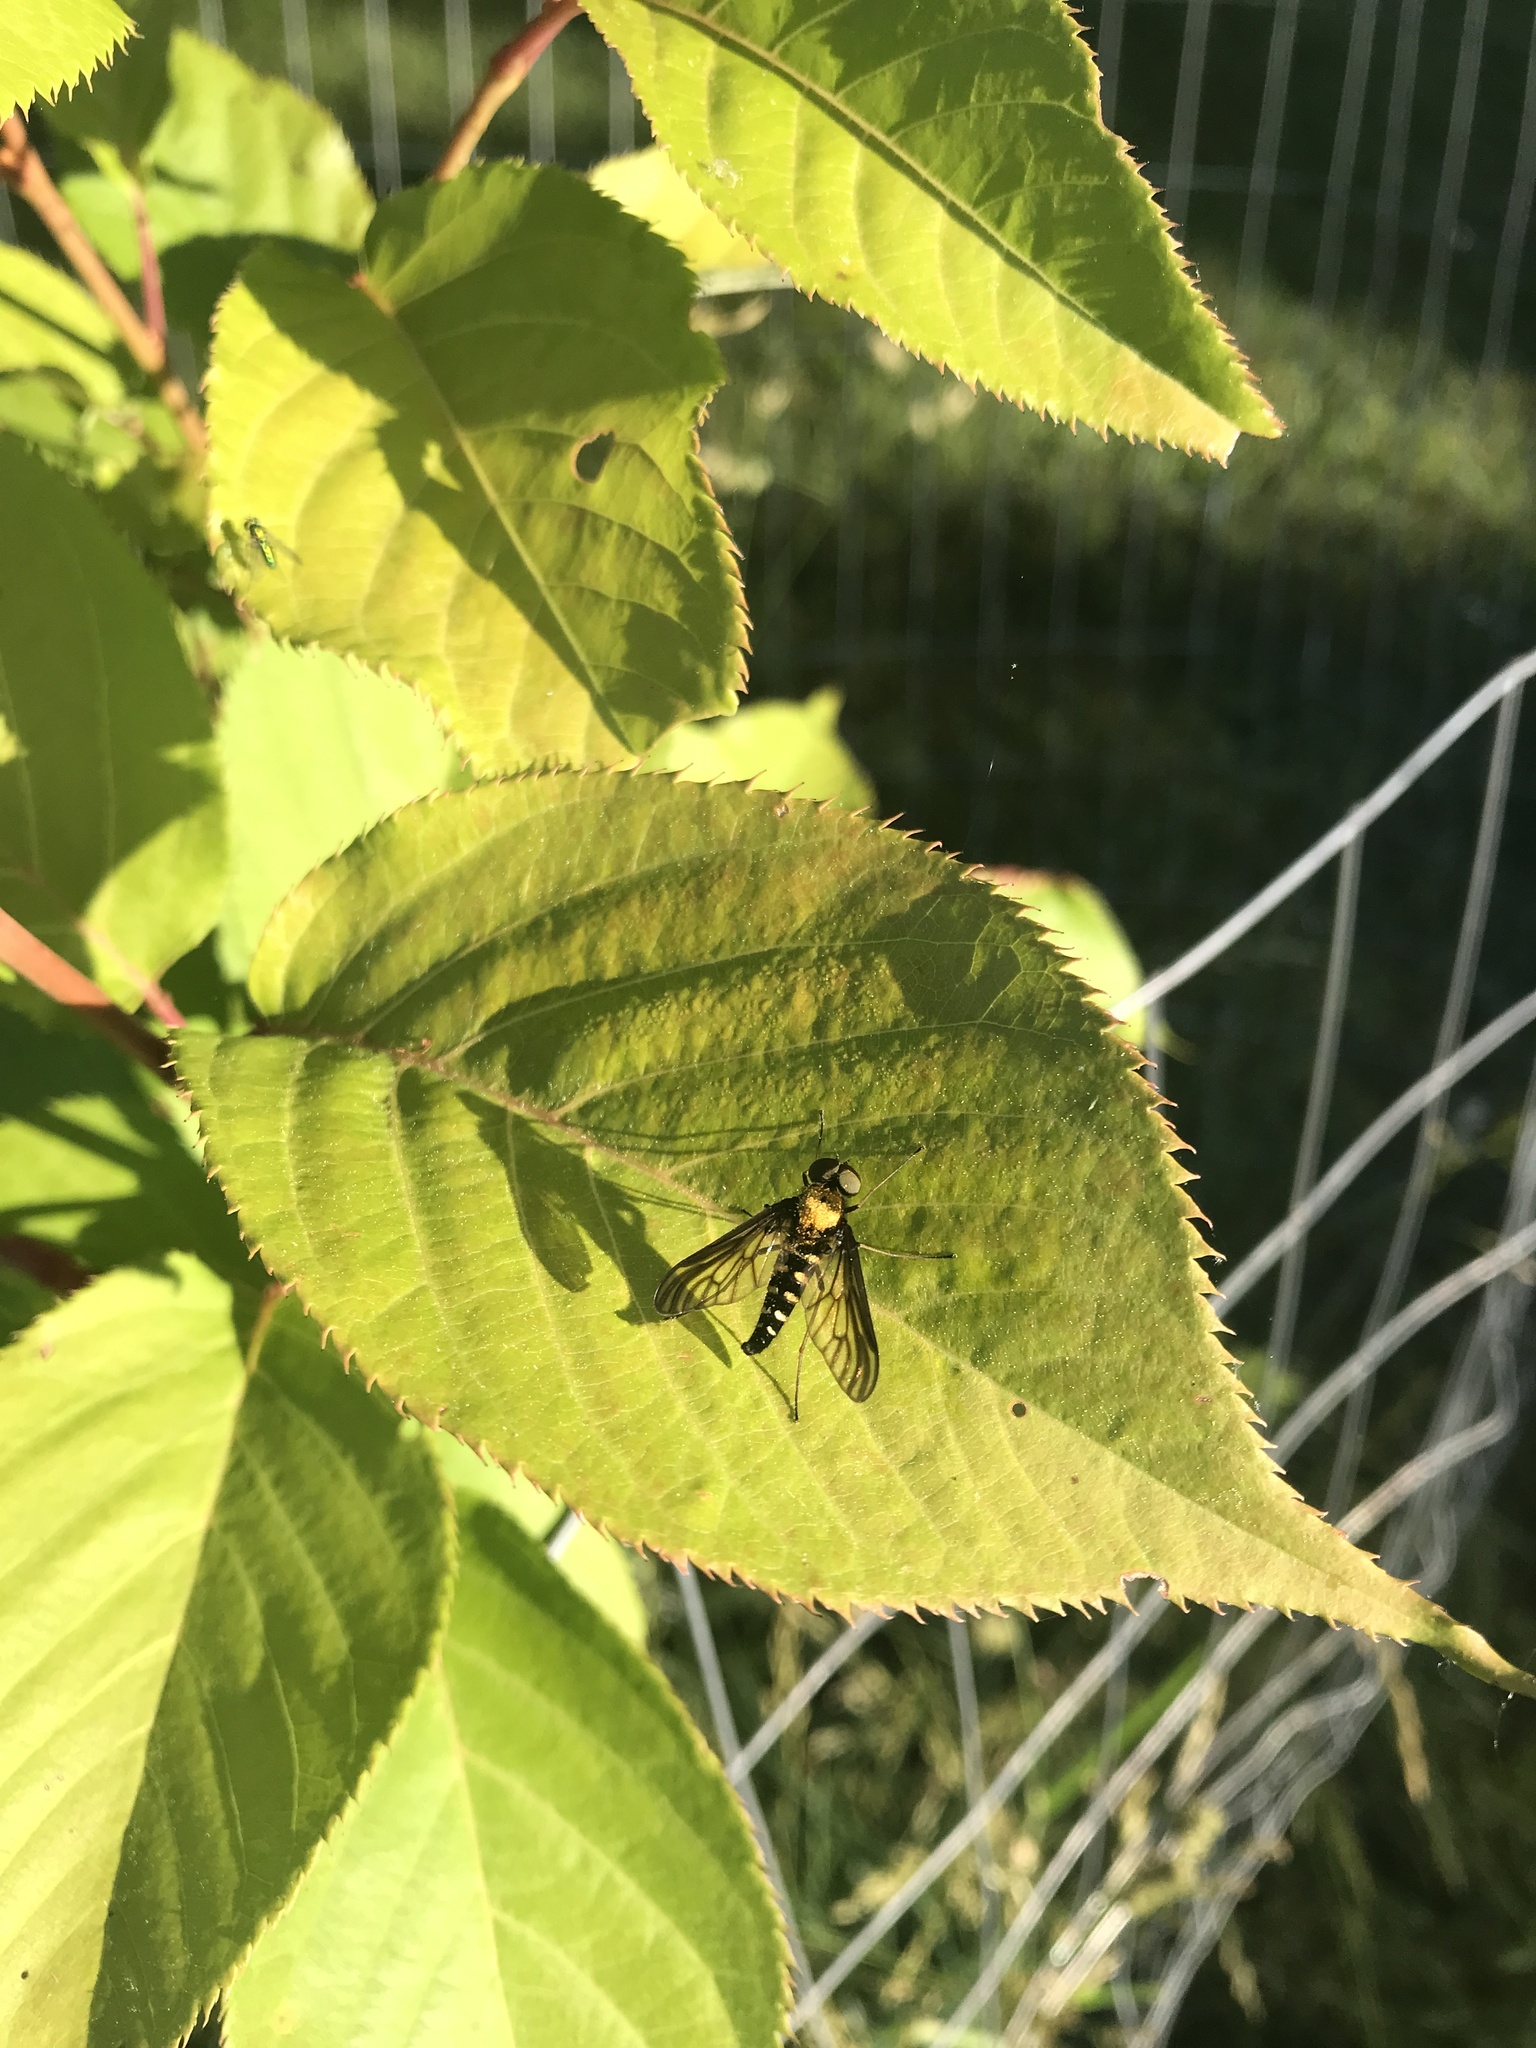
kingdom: Animalia
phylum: Arthropoda
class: Insecta
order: Diptera
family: Rhagionidae
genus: Chrysopilus
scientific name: Chrysopilus thoracicus
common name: Golden-backed snipe fly
